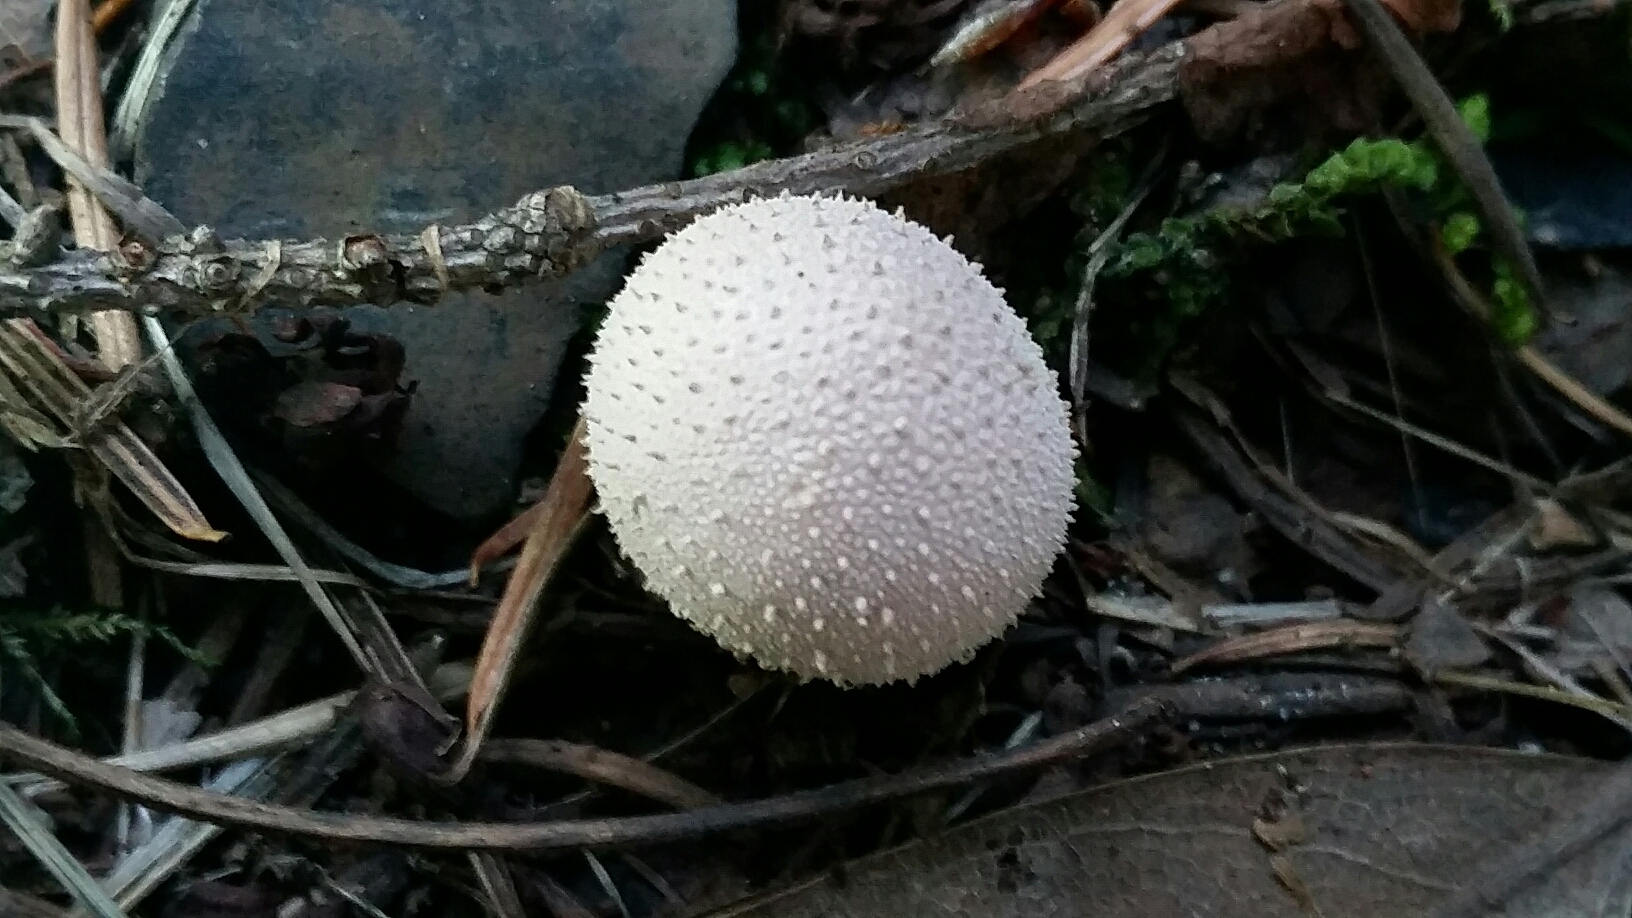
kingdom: Fungi
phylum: Basidiomycota
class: Agaricomycetes
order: Agaricales
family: Lycoperdaceae
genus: Lycoperdon
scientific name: Lycoperdon perlatum
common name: Common puffball
